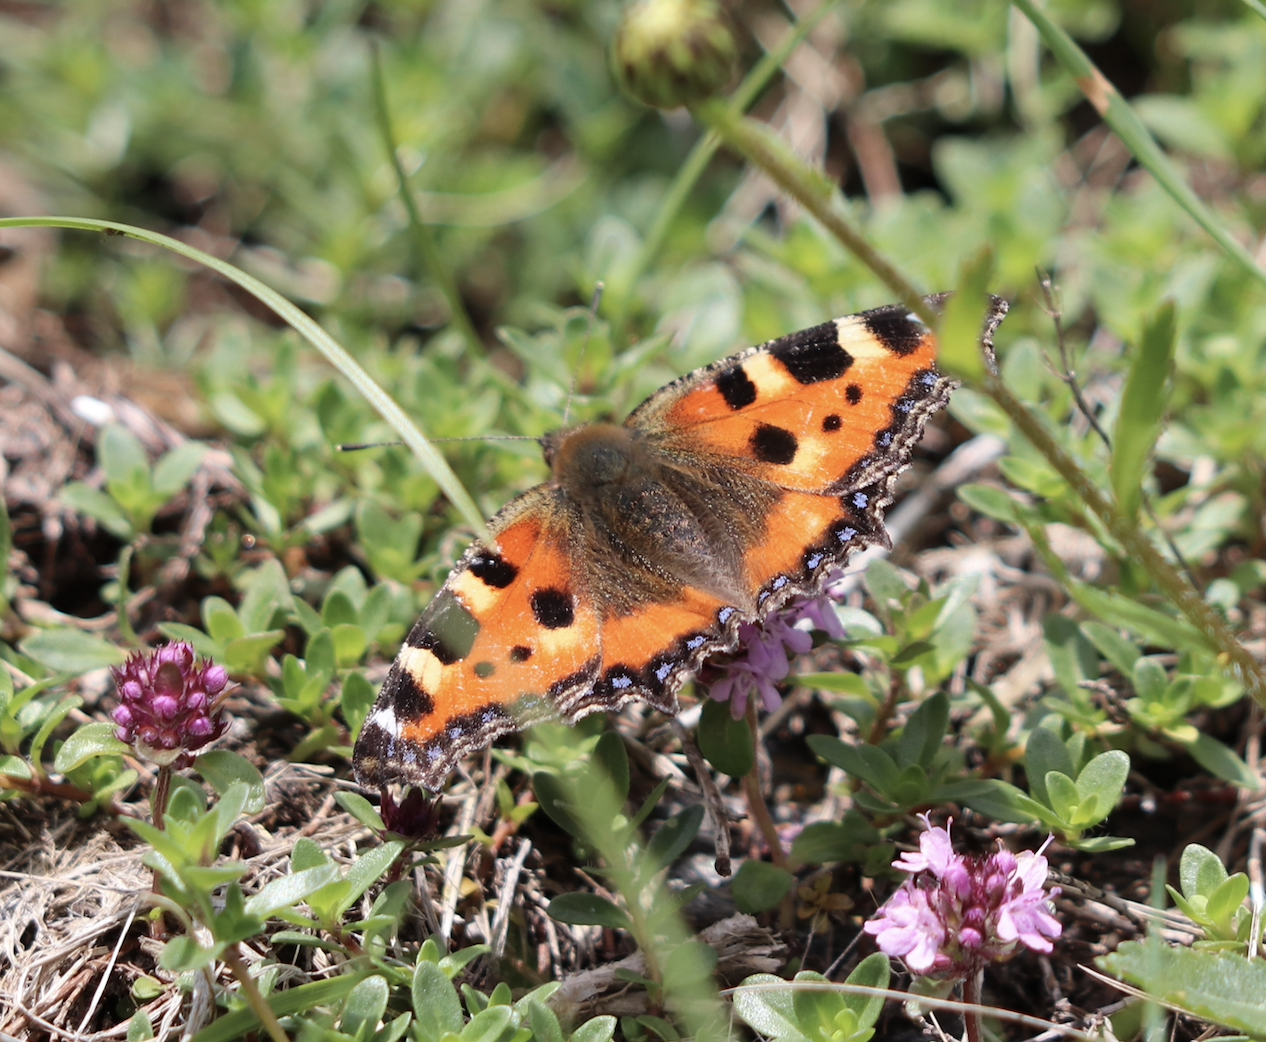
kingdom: Animalia
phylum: Arthropoda
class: Insecta
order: Lepidoptera
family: Nymphalidae
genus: Aglais
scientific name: Aglais urticae
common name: Small tortoiseshell
